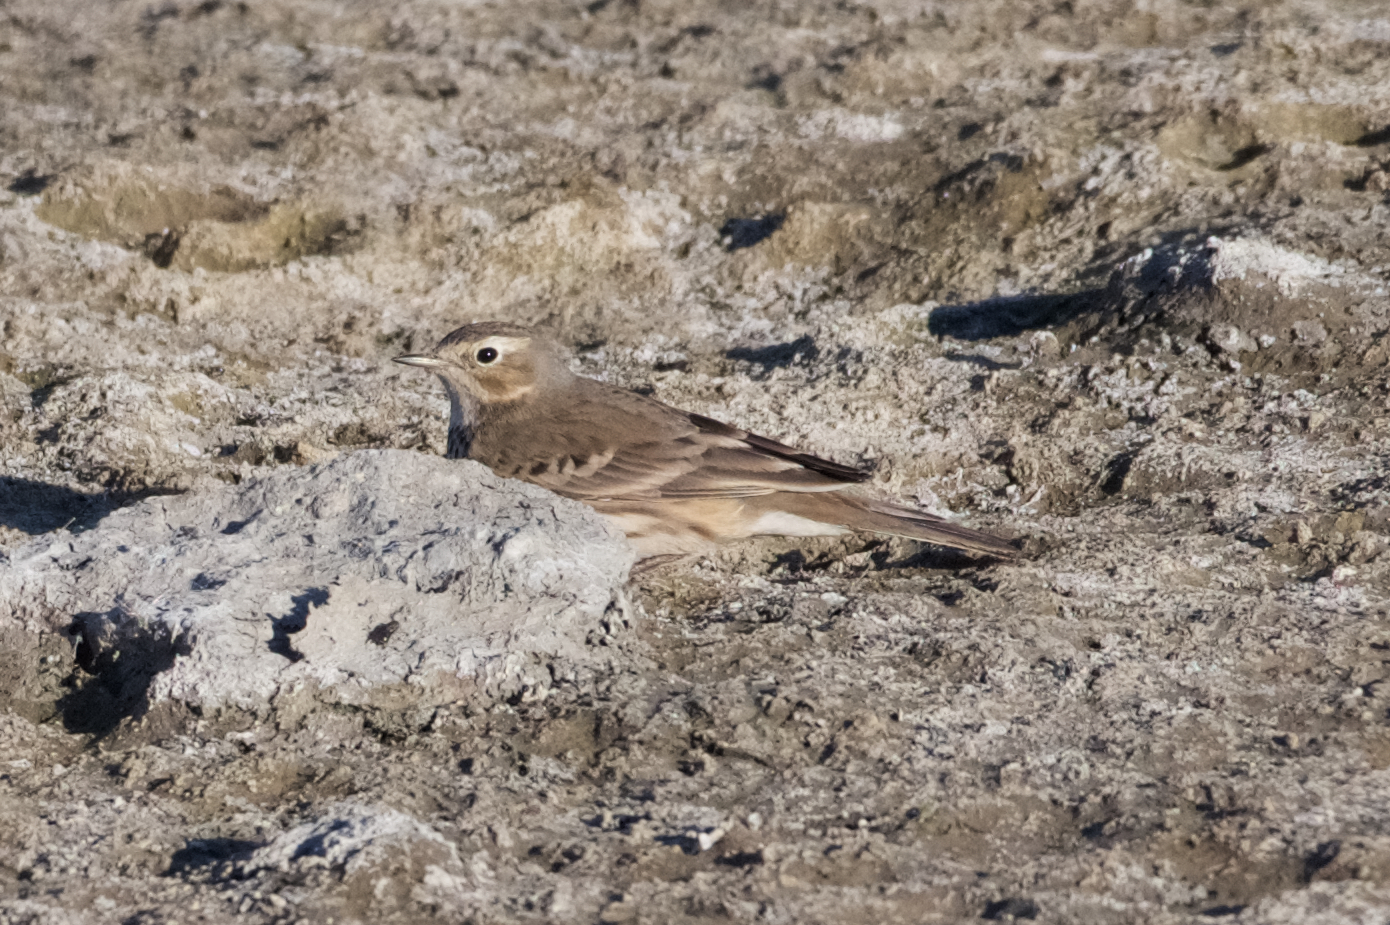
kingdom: Animalia
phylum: Chordata
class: Aves
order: Passeriformes
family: Motacillidae
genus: Anthus
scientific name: Anthus rubescens
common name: Buff-bellied pipit
